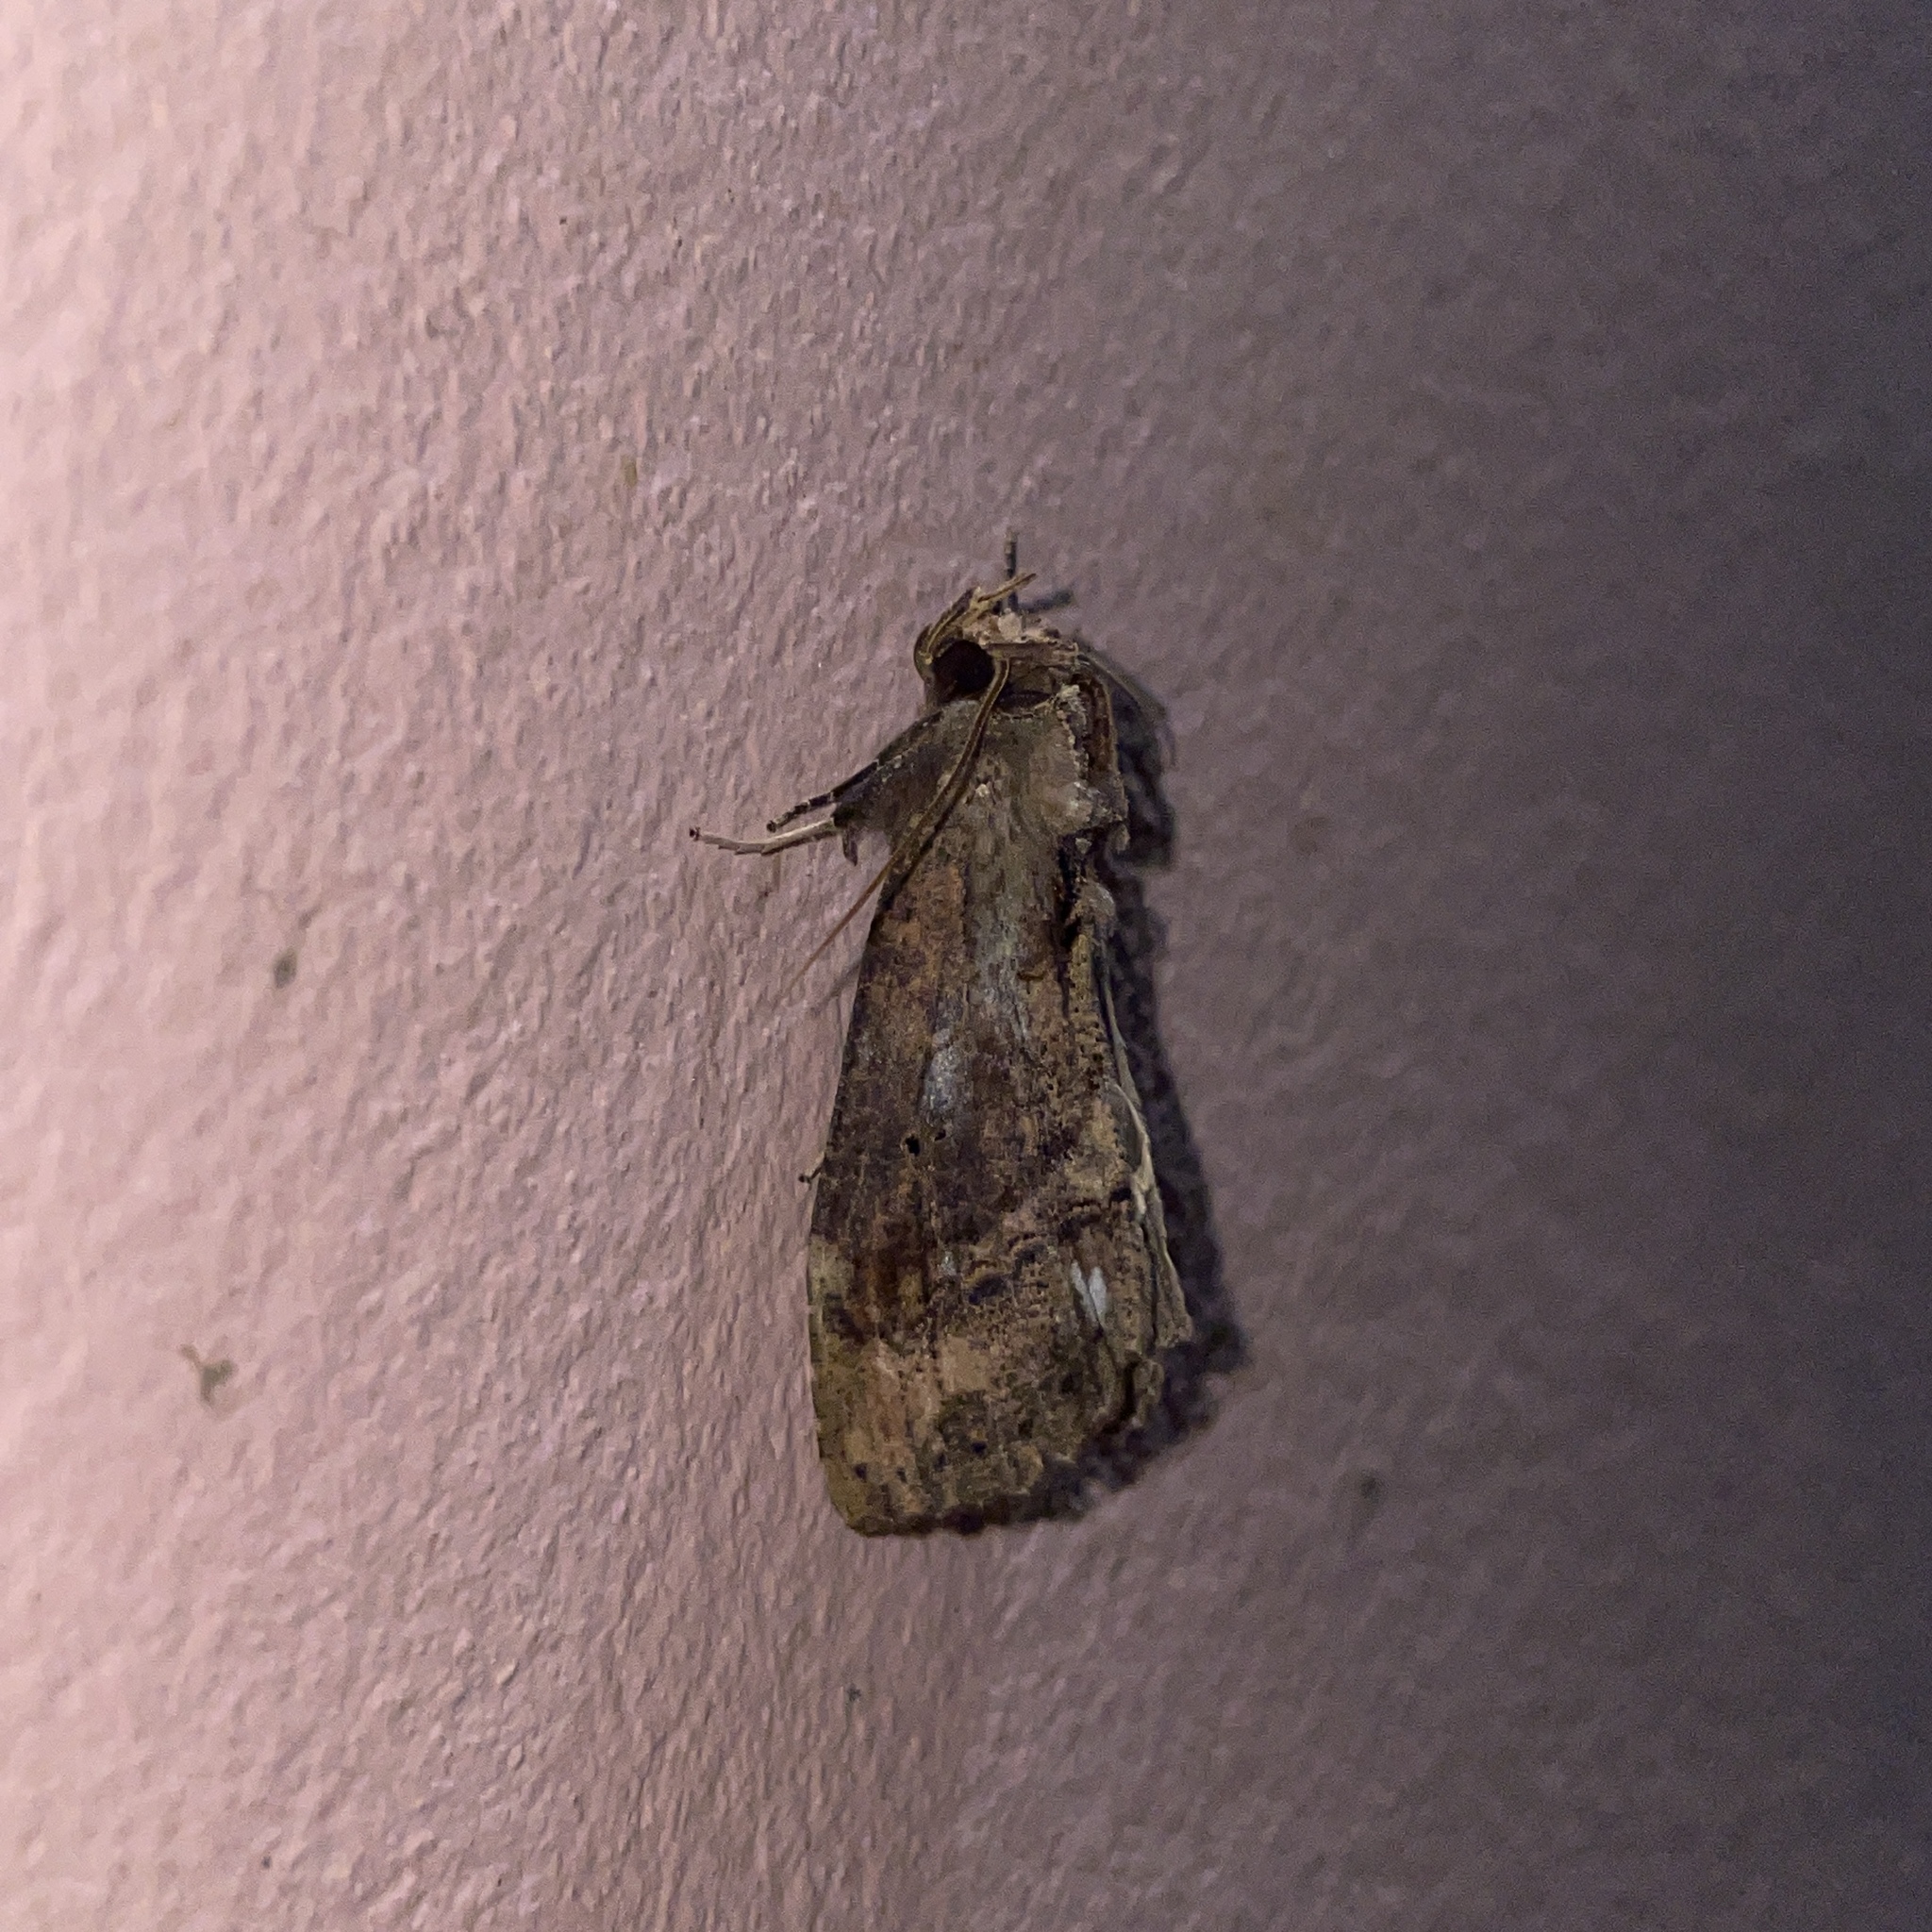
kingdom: Animalia
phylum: Arthropoda
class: Insecta
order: Lepidoptera
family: Notodontidae
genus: Bardaxima
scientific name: Bardaxima marcida
